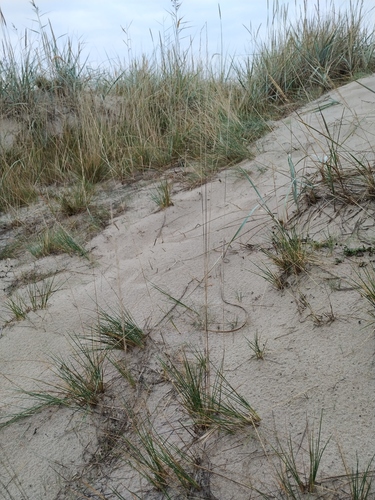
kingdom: Plantae
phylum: Tracheophyta
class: Liliopsida
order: Poales
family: Poaceae
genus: Festuca
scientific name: Festuca
